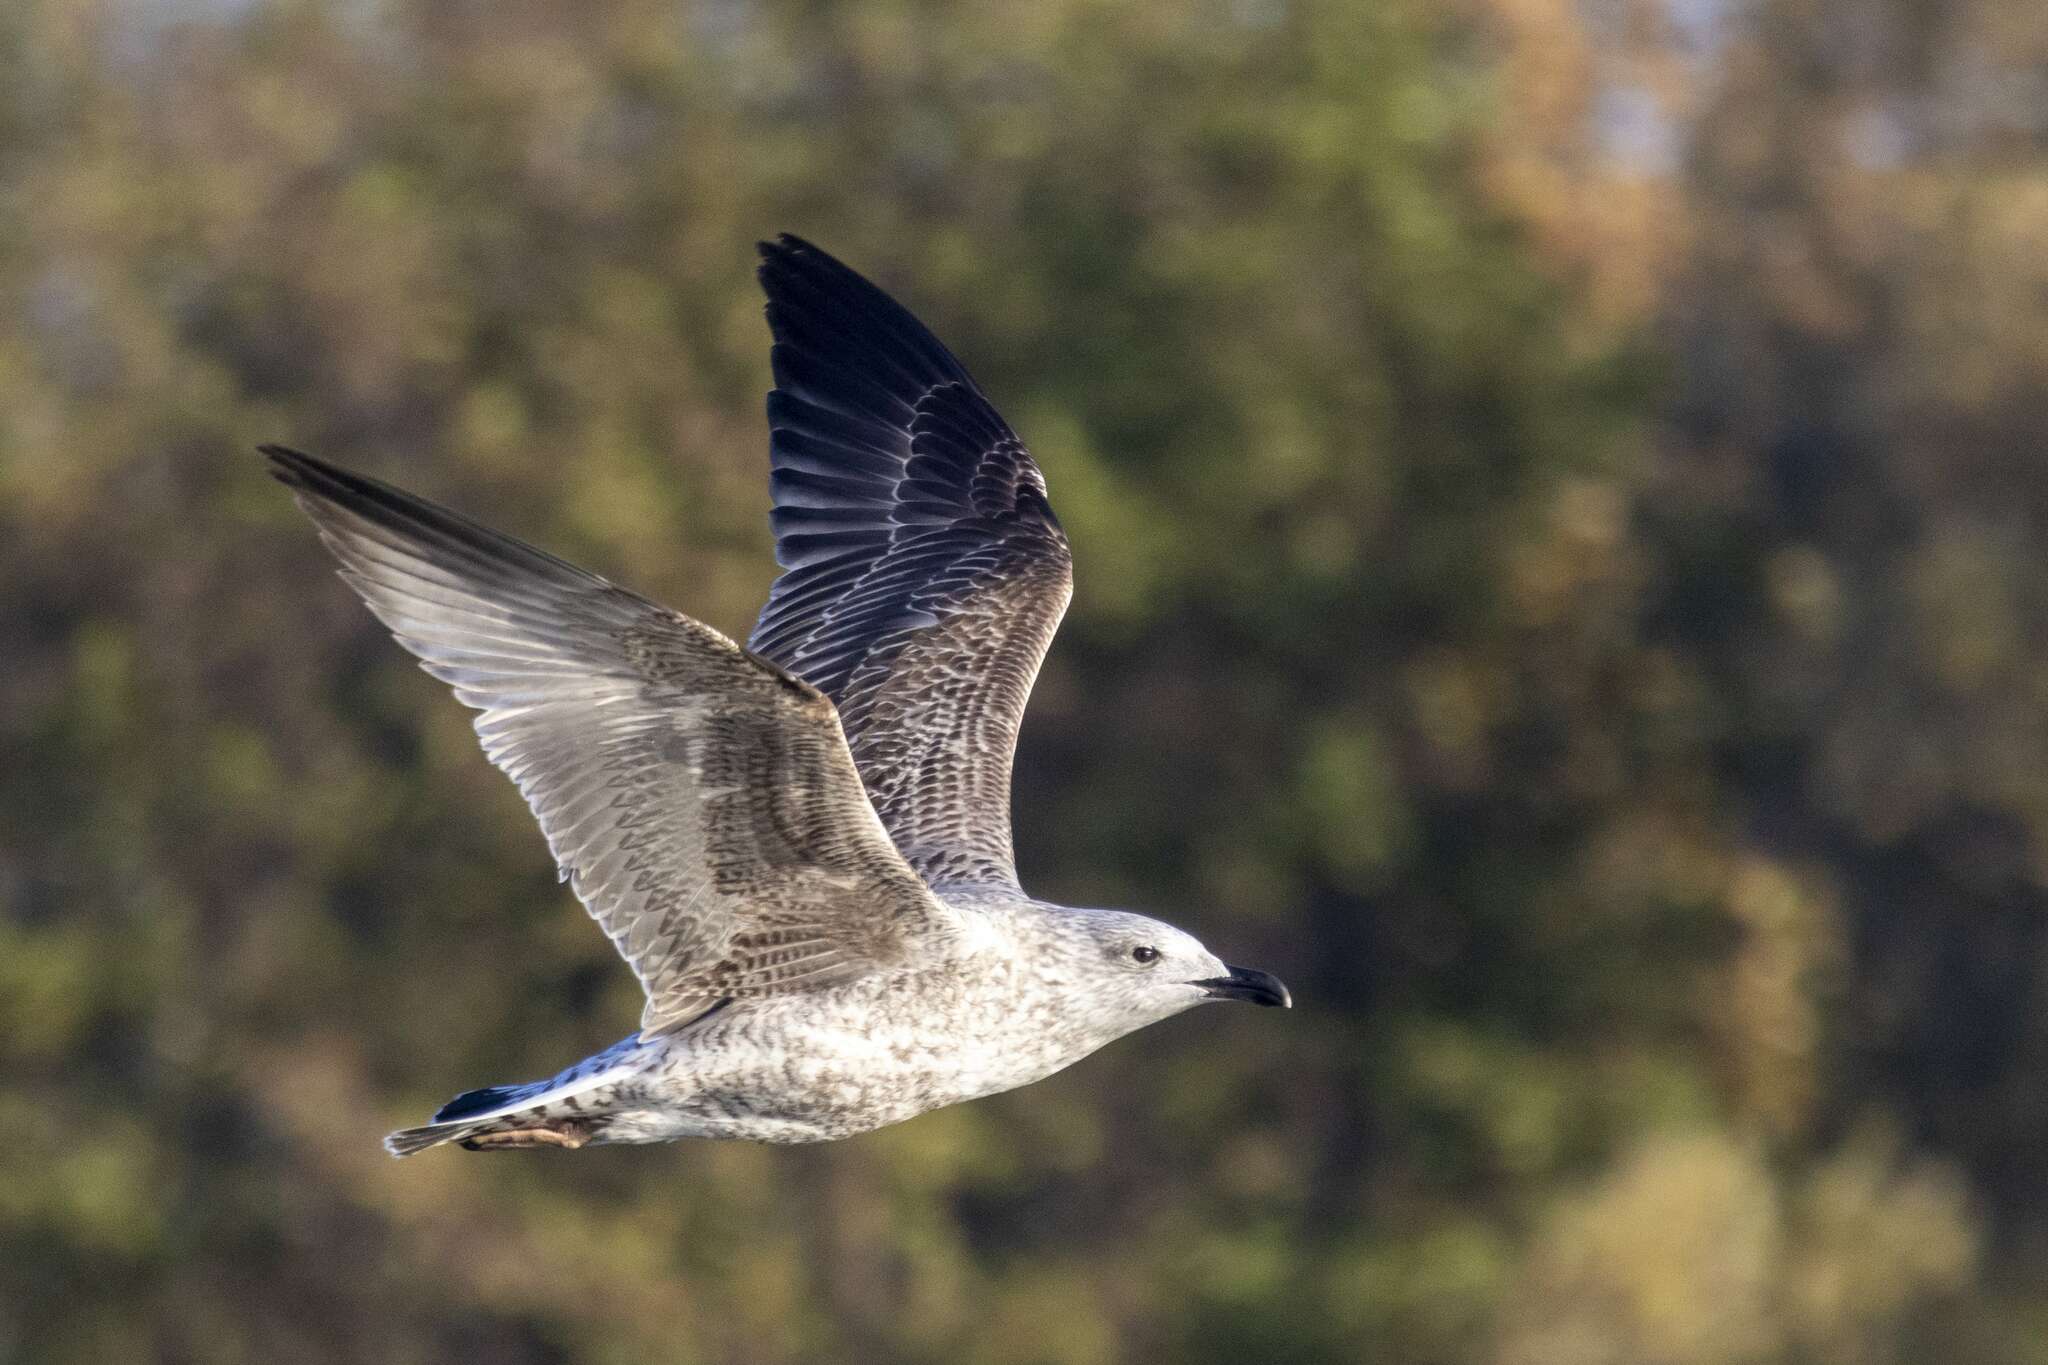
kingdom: Animalia
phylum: Chordata
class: Aves
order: Charadriiformes
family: Laridae
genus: Larus
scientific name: Larus michahellis
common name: Yellow-legged gull
